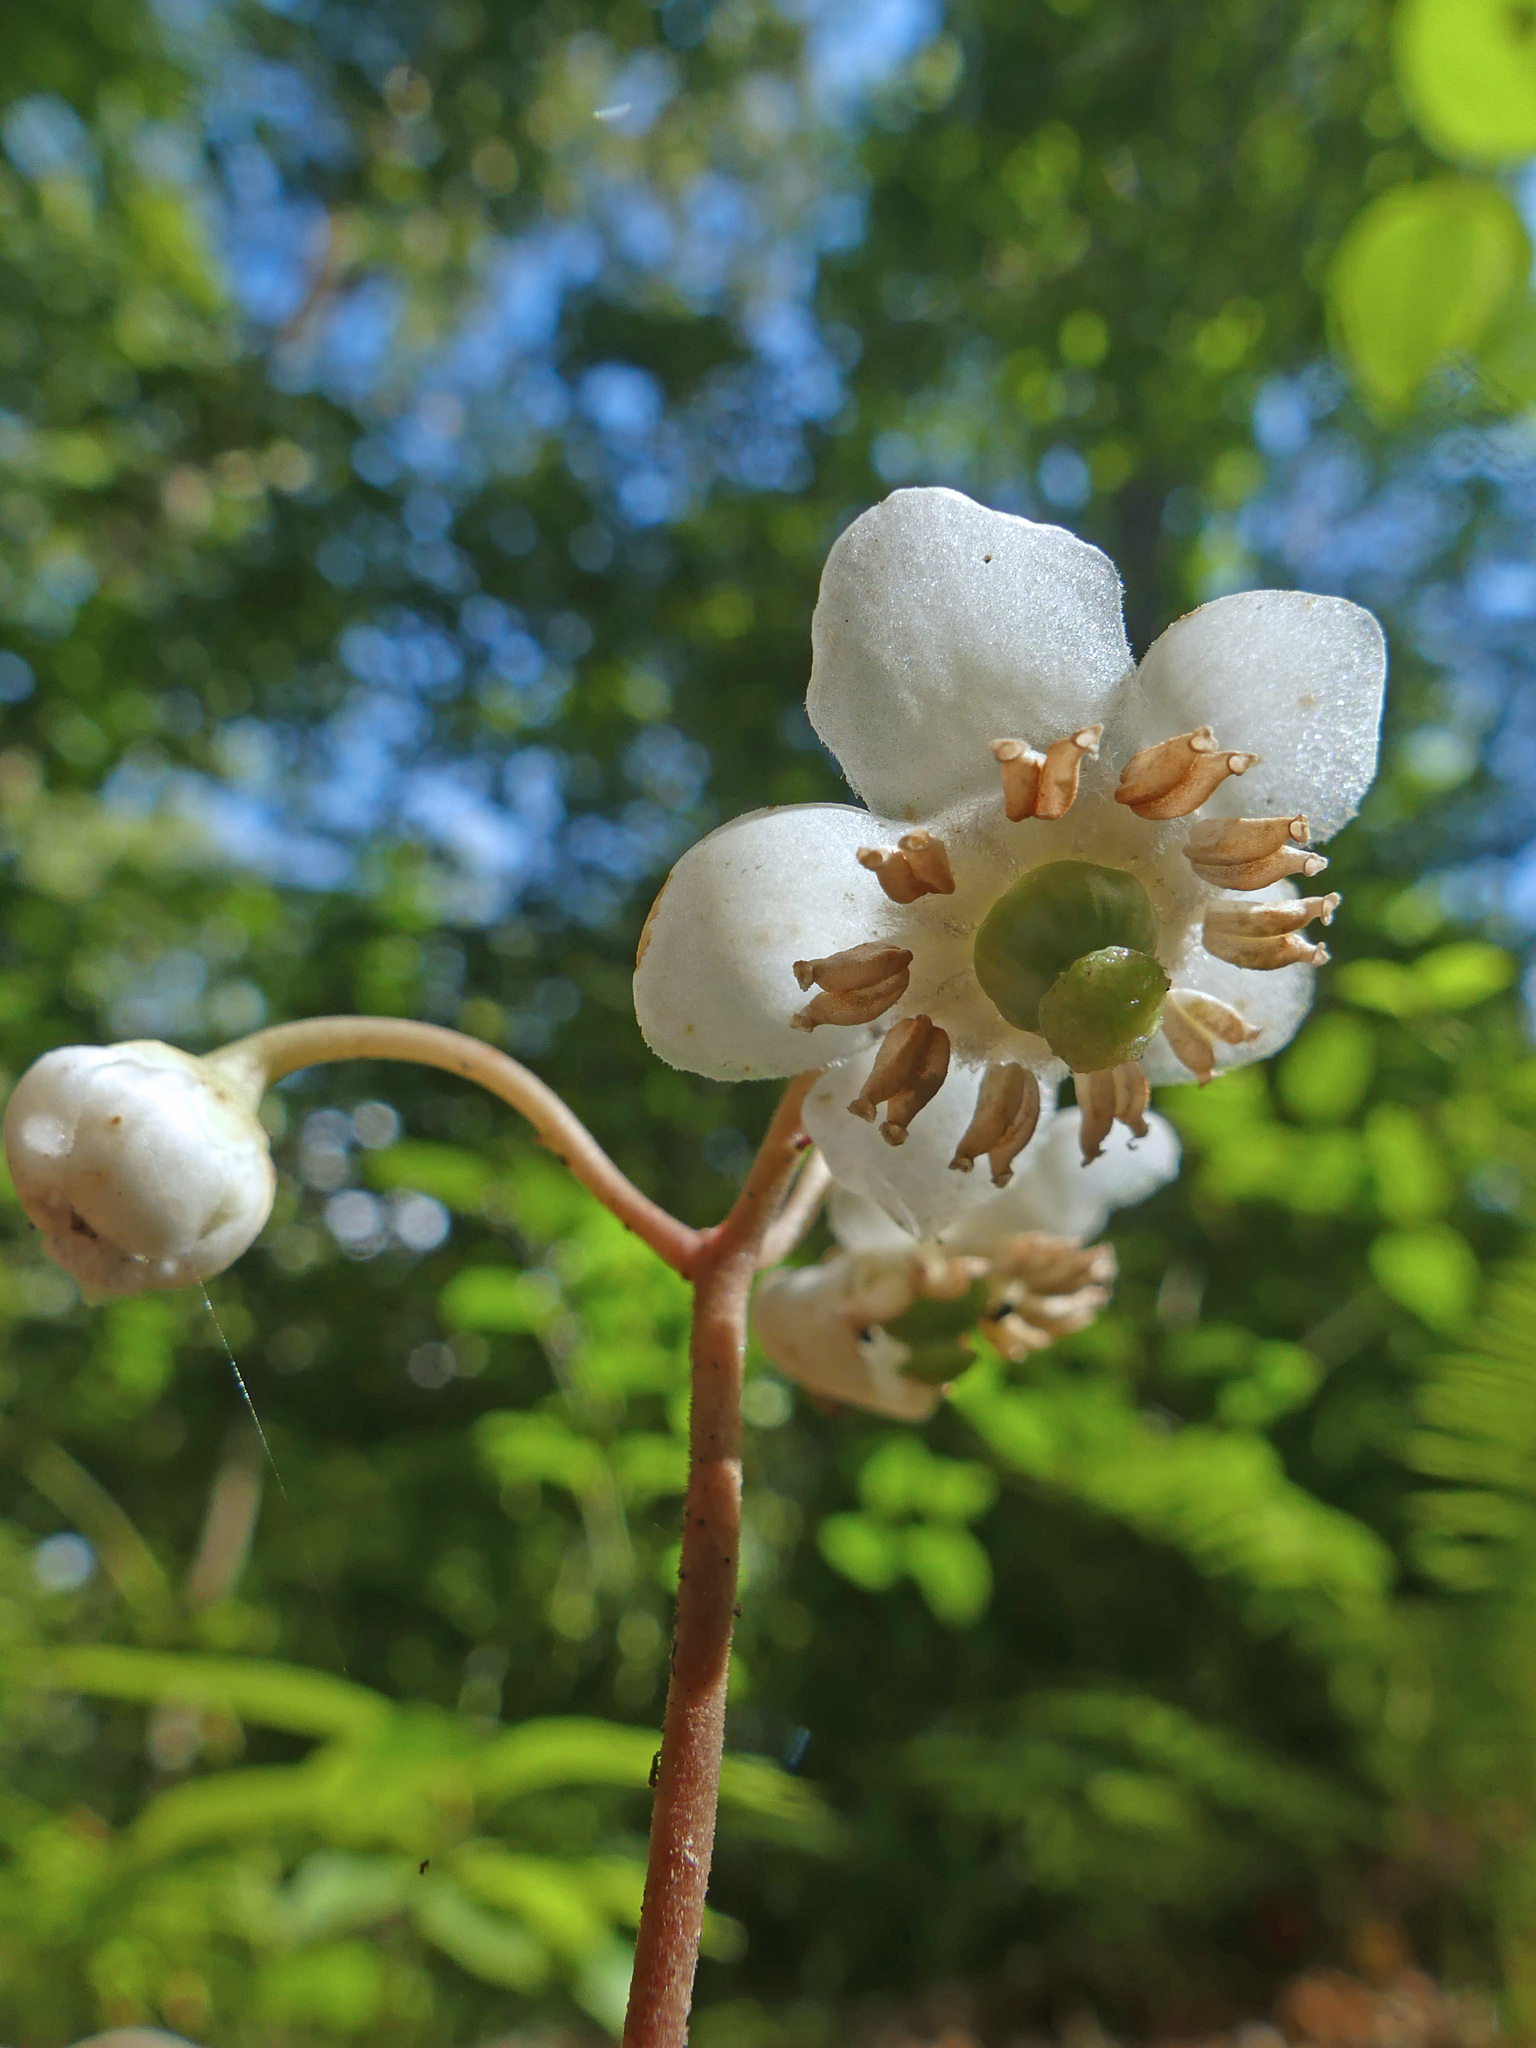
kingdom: Plantae
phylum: Tracheophyta
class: Magnoliopsida
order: Ericales
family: Ericaceae
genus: Chimaphila
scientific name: Chimaphila maculata
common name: Spotted pipsissewa
